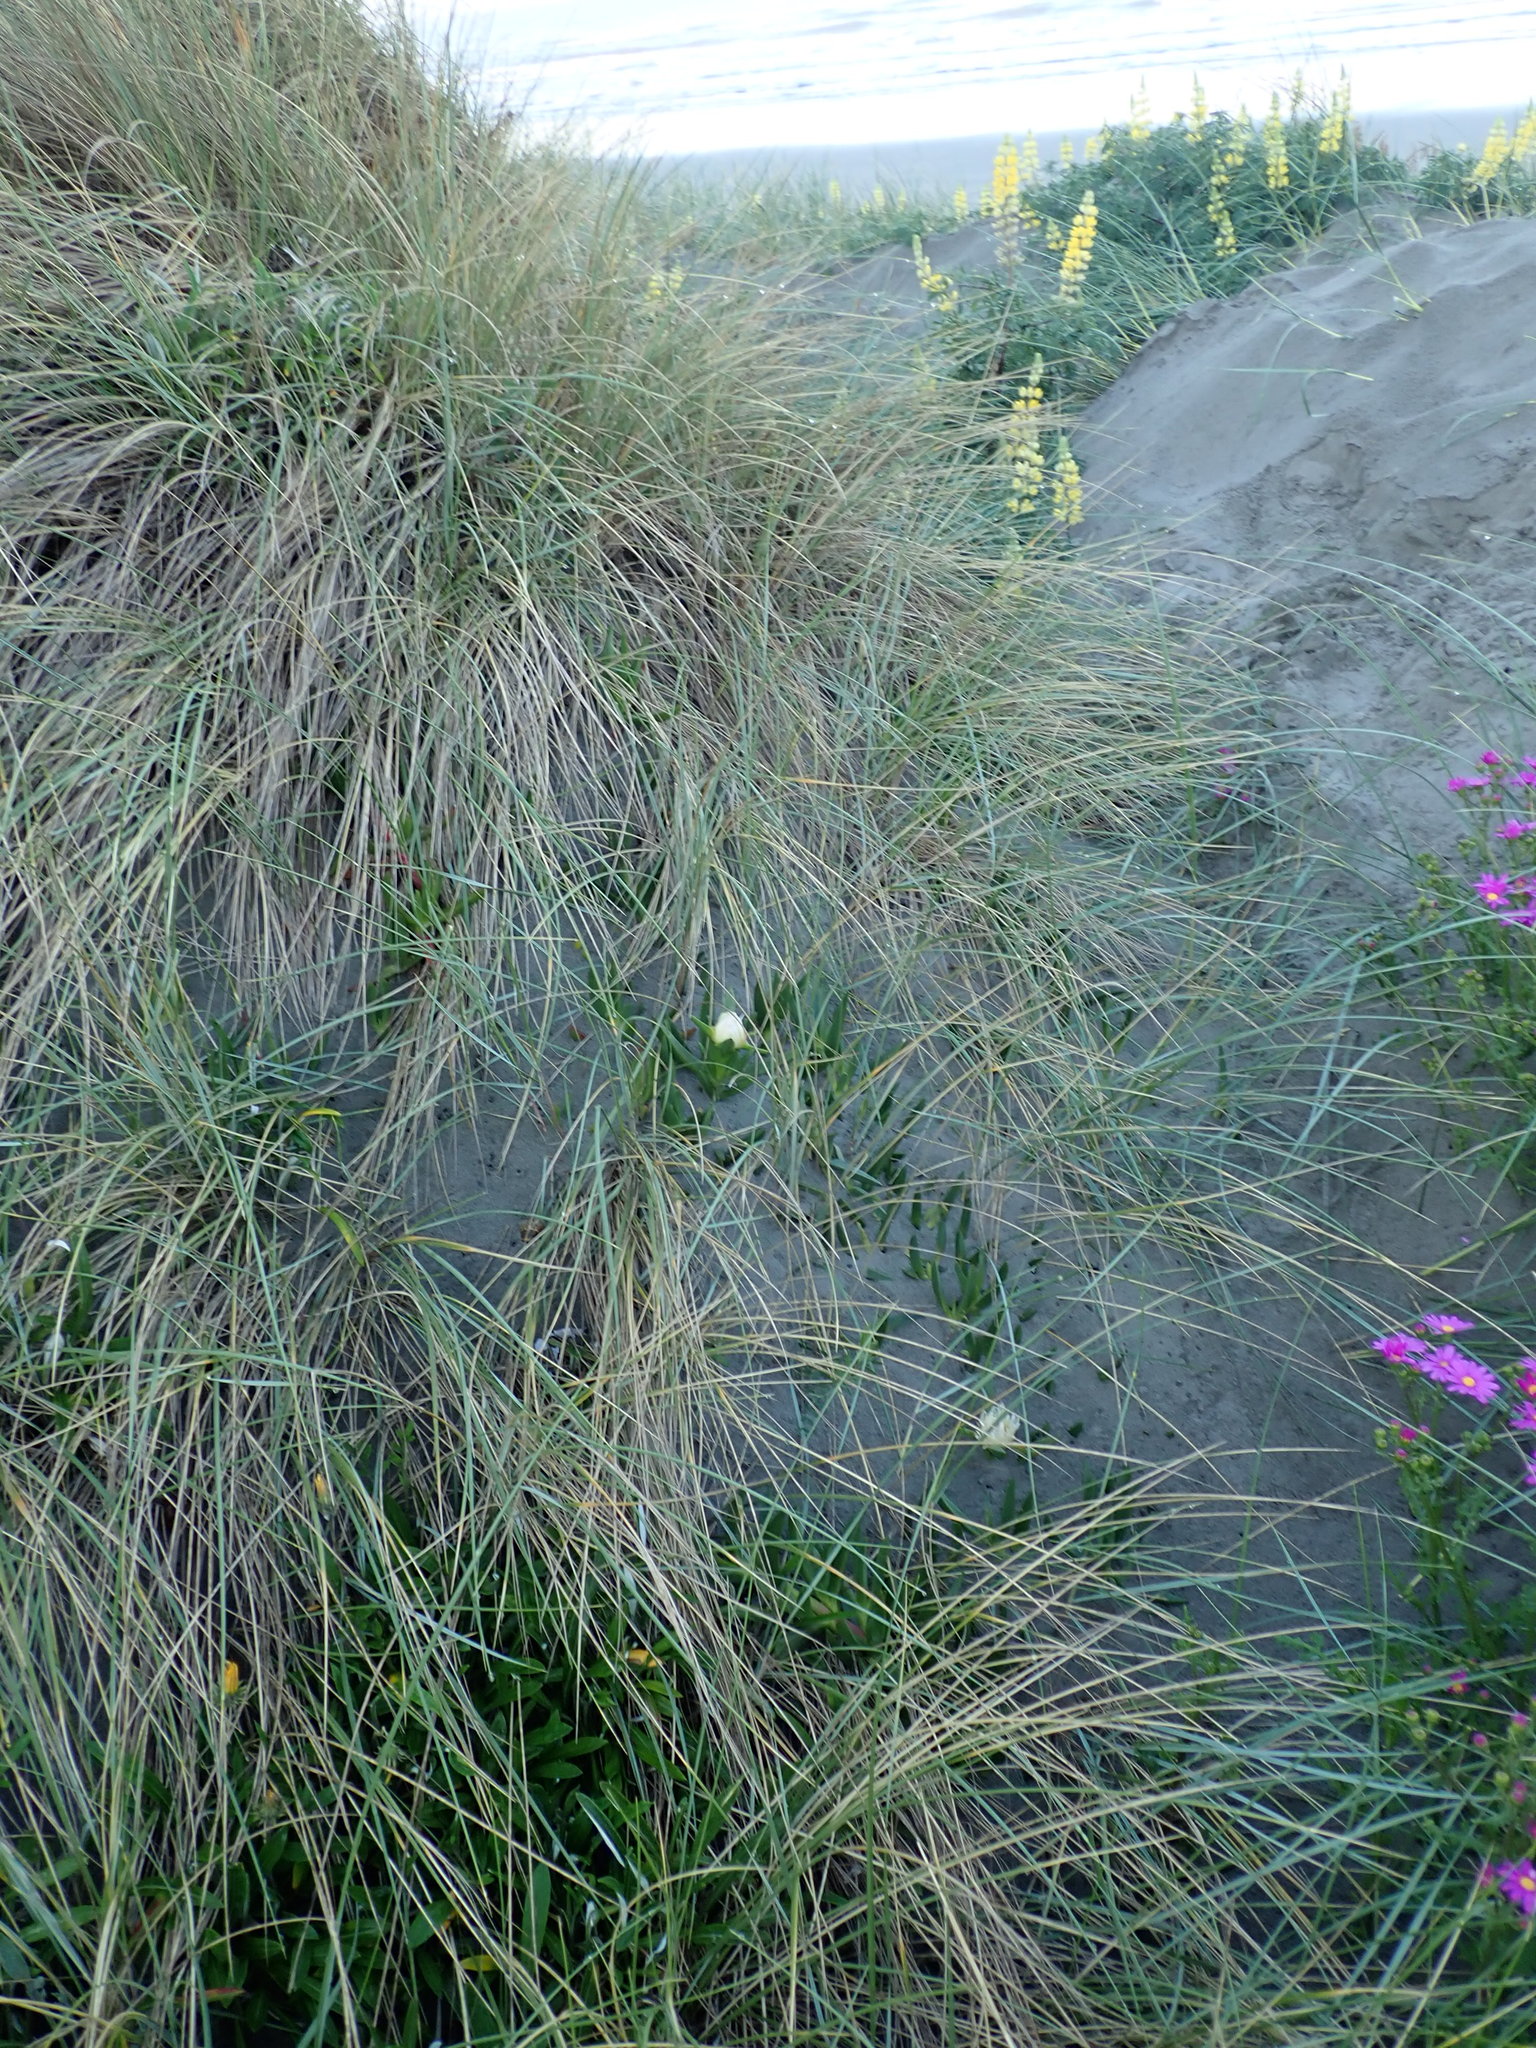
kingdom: Animalia
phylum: Mollusca
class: Gastropoda
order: Stylommatophora
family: Helicidae
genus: Cornu
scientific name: Cornu aspersum
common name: Brown garden snail
